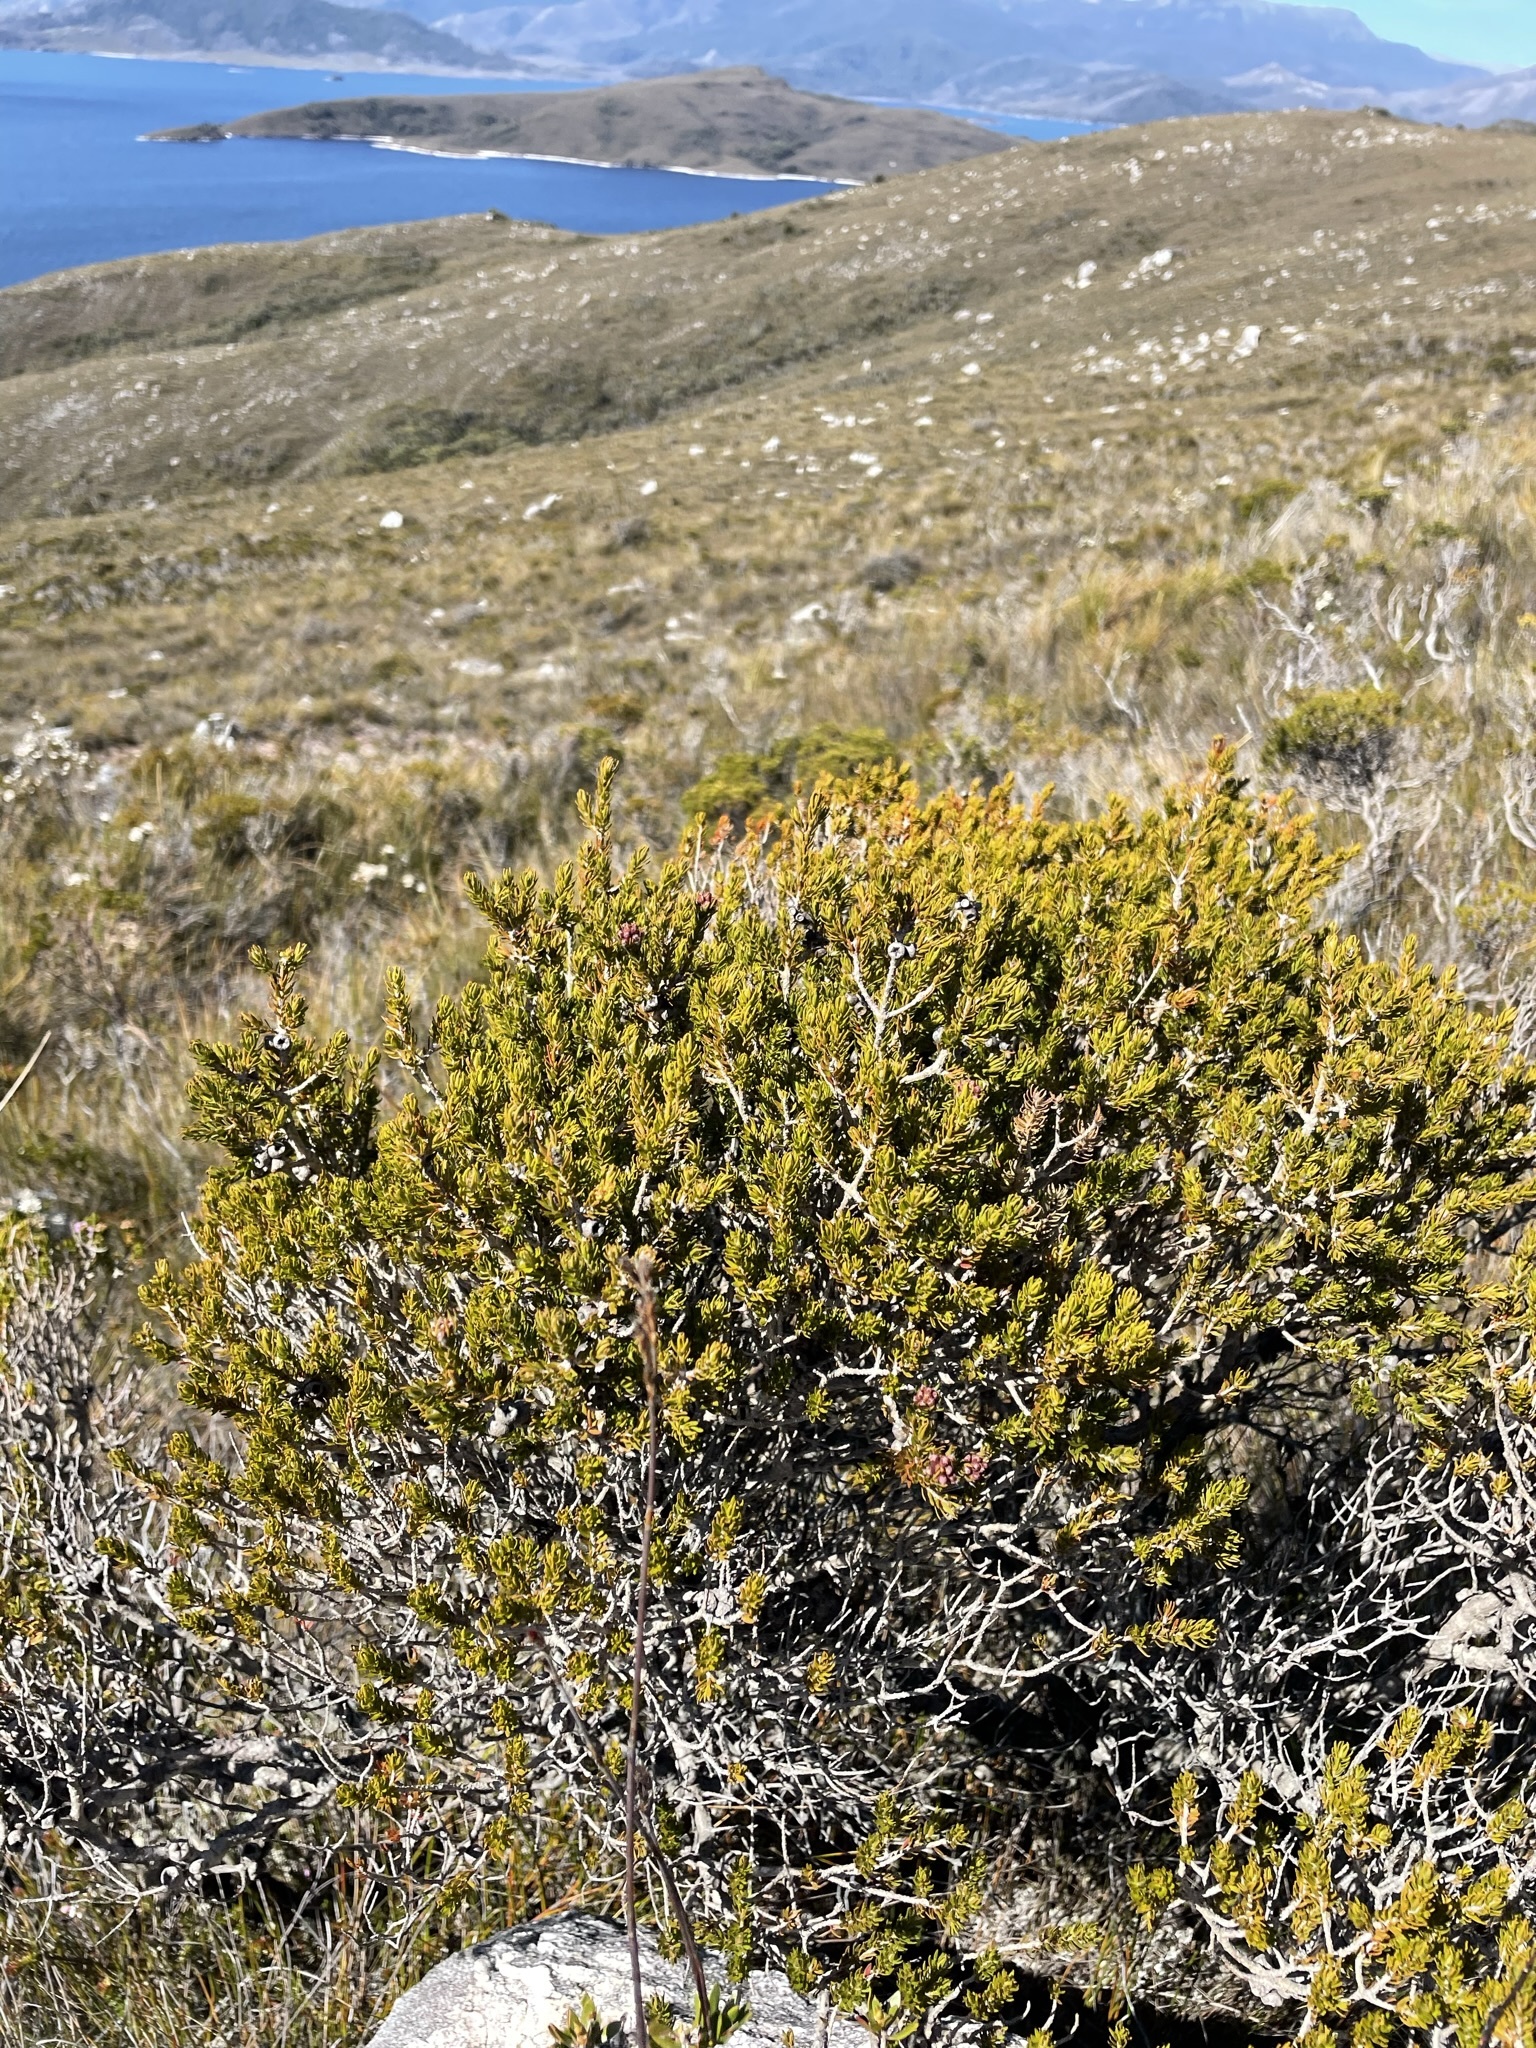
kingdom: Plantae
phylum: Tracheophyta
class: Magnoliopsida
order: Myrtales
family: Myrtaceae
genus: Melaleuca
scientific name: Melaleuca squamea
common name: Swamp melaleuca
